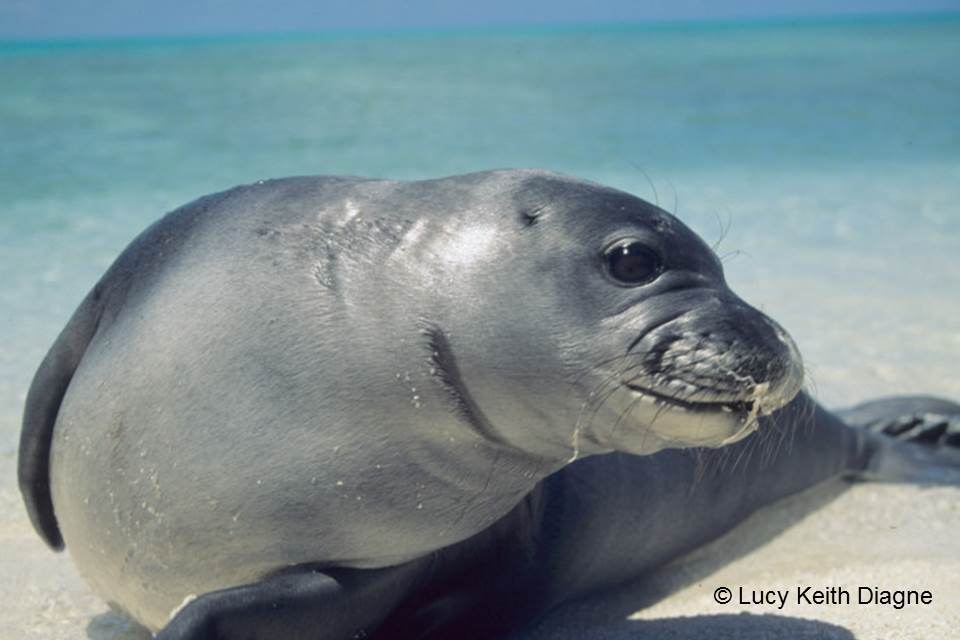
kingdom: Animalia
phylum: Chordata
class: Mammalia
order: Carnivora
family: Phocidae
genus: Neomonachus
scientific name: Neomonachus schauinslandi
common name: Hawaiian monk seal
